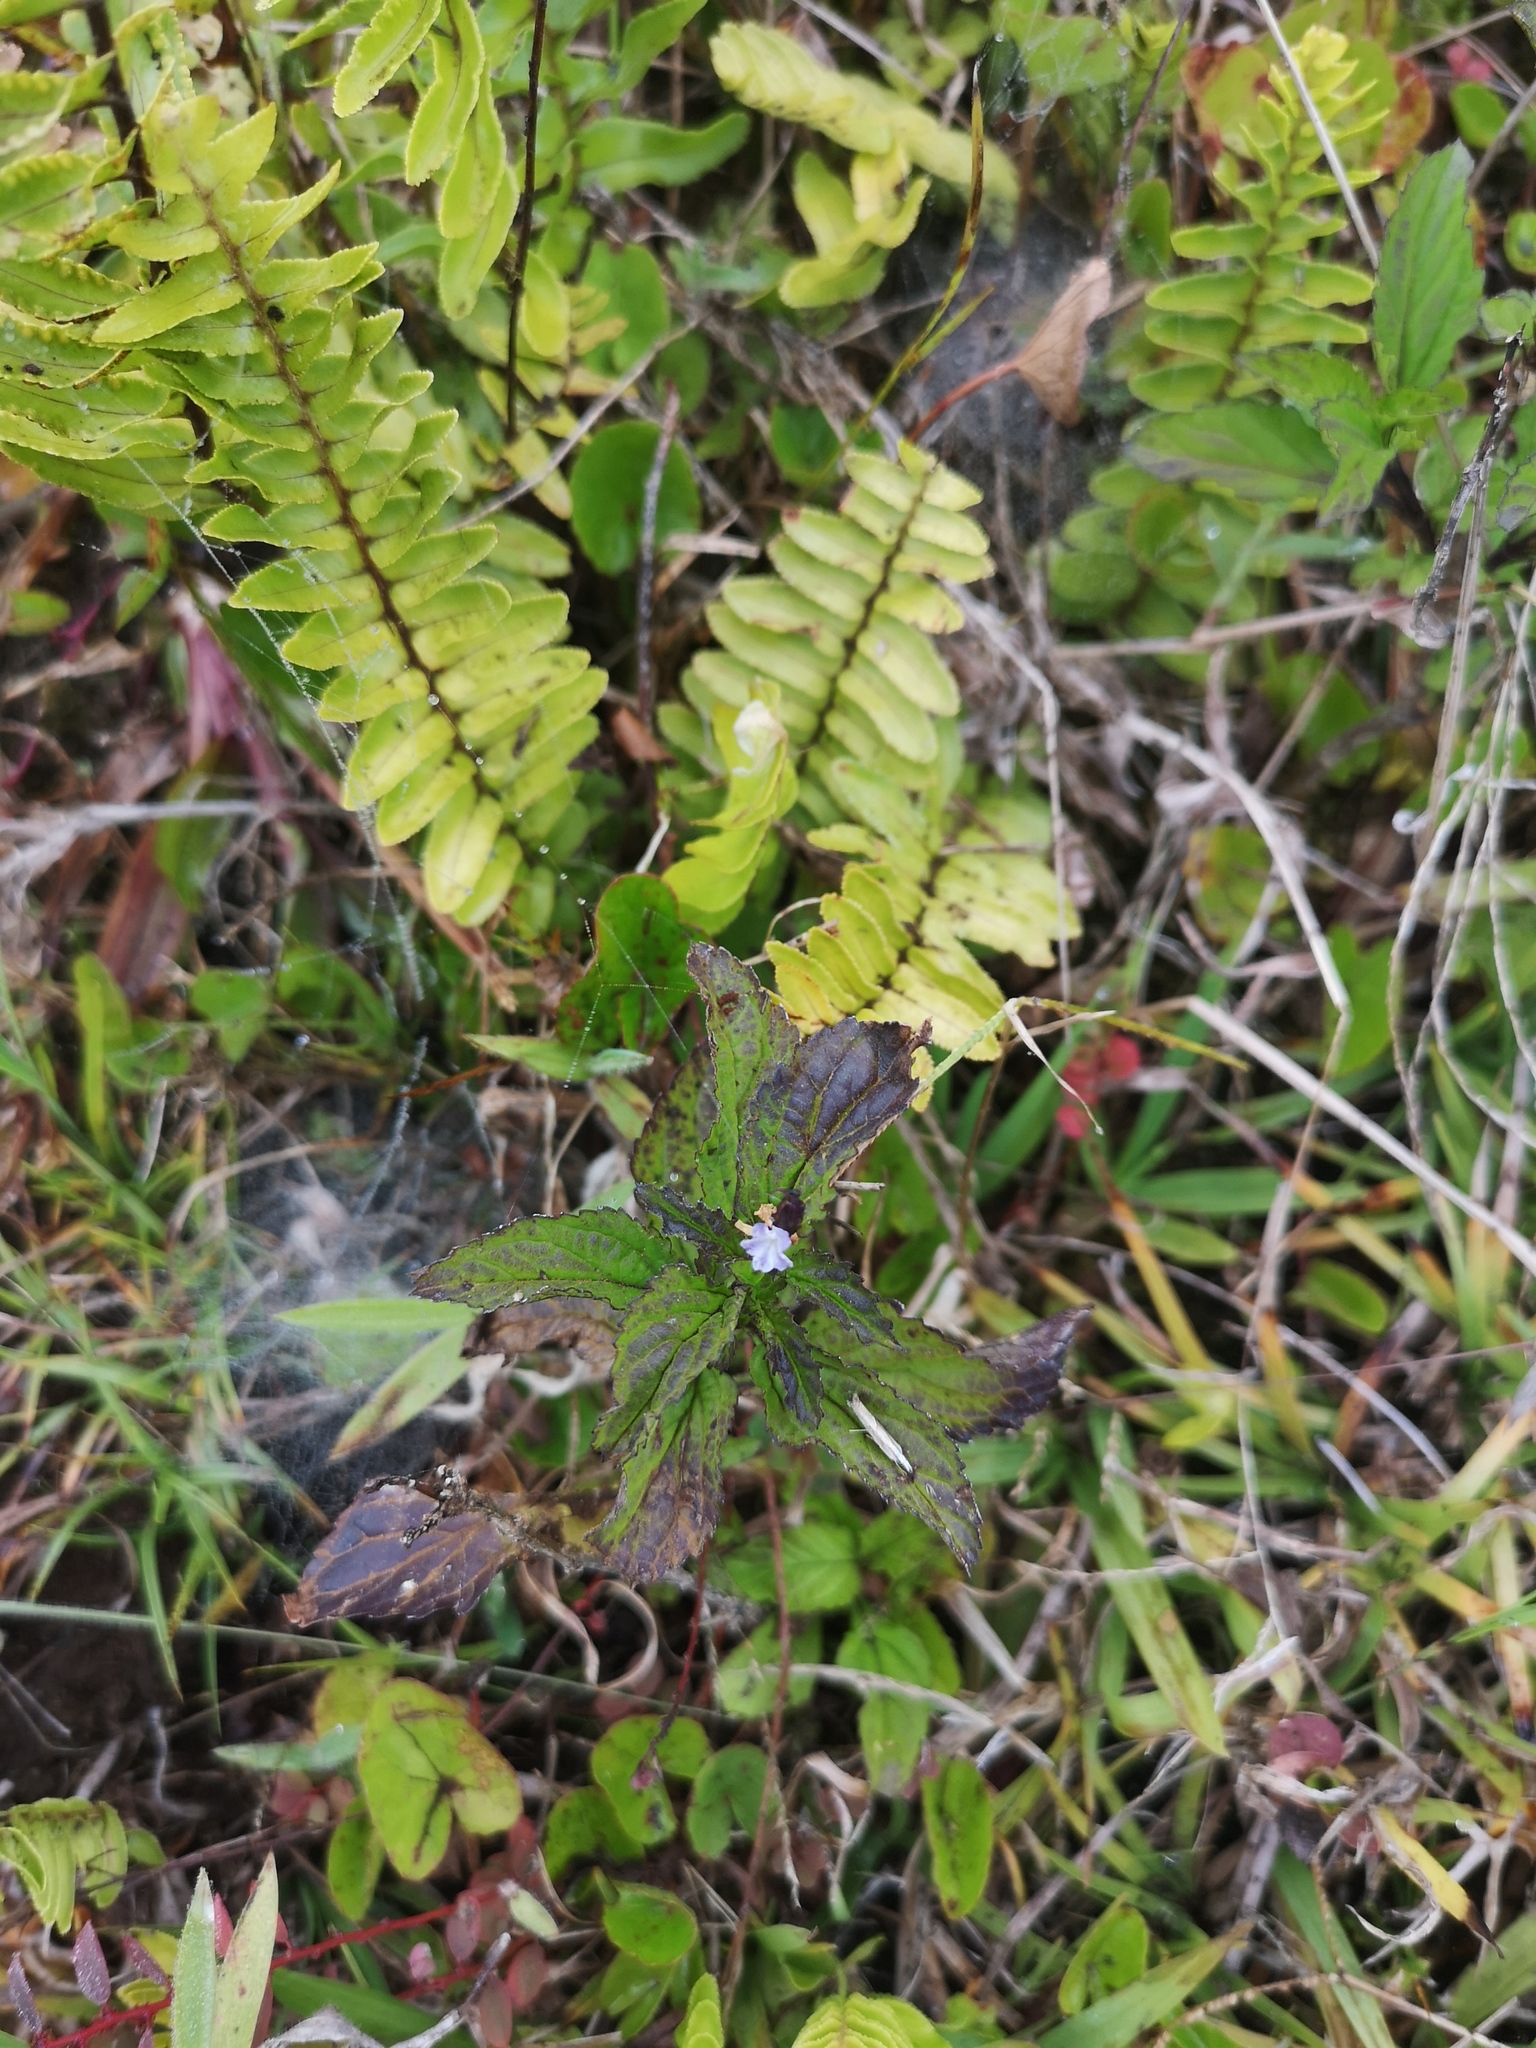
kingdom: Plantae
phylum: Tracheophyta
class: Magnoliopsida
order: Lamiales
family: Acanthaceae
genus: Ruellia
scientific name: Ruellia blechum
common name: Browne's blechum
